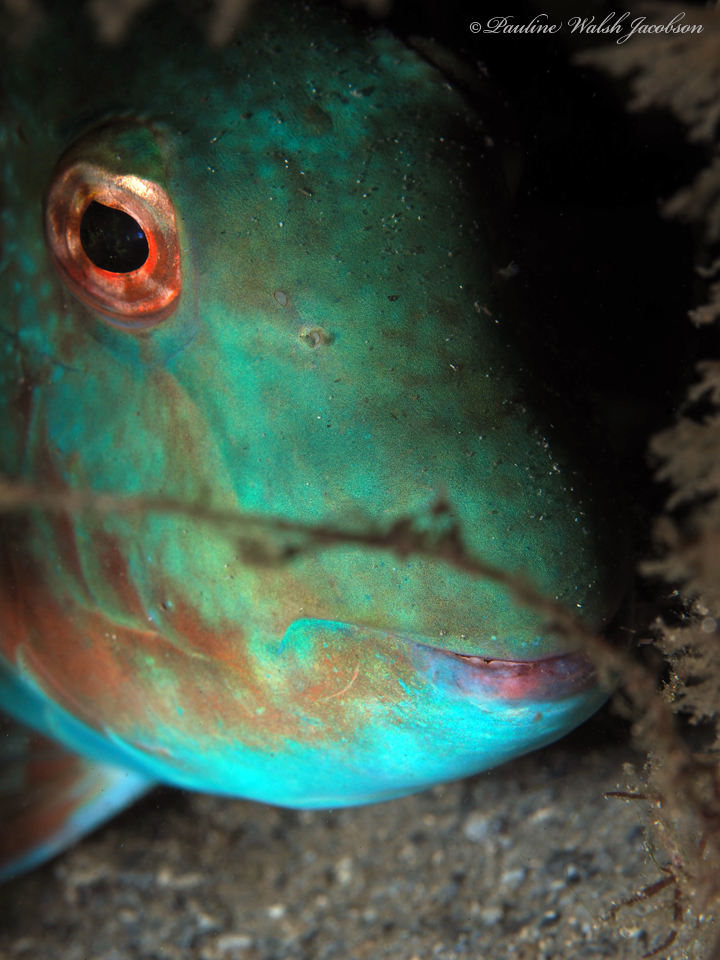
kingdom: Animalia
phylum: Chordata
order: Perciformes
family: Scaridae
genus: Sparisoma
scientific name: Sparisoma chrysopterum
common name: Redtail parrotfish
